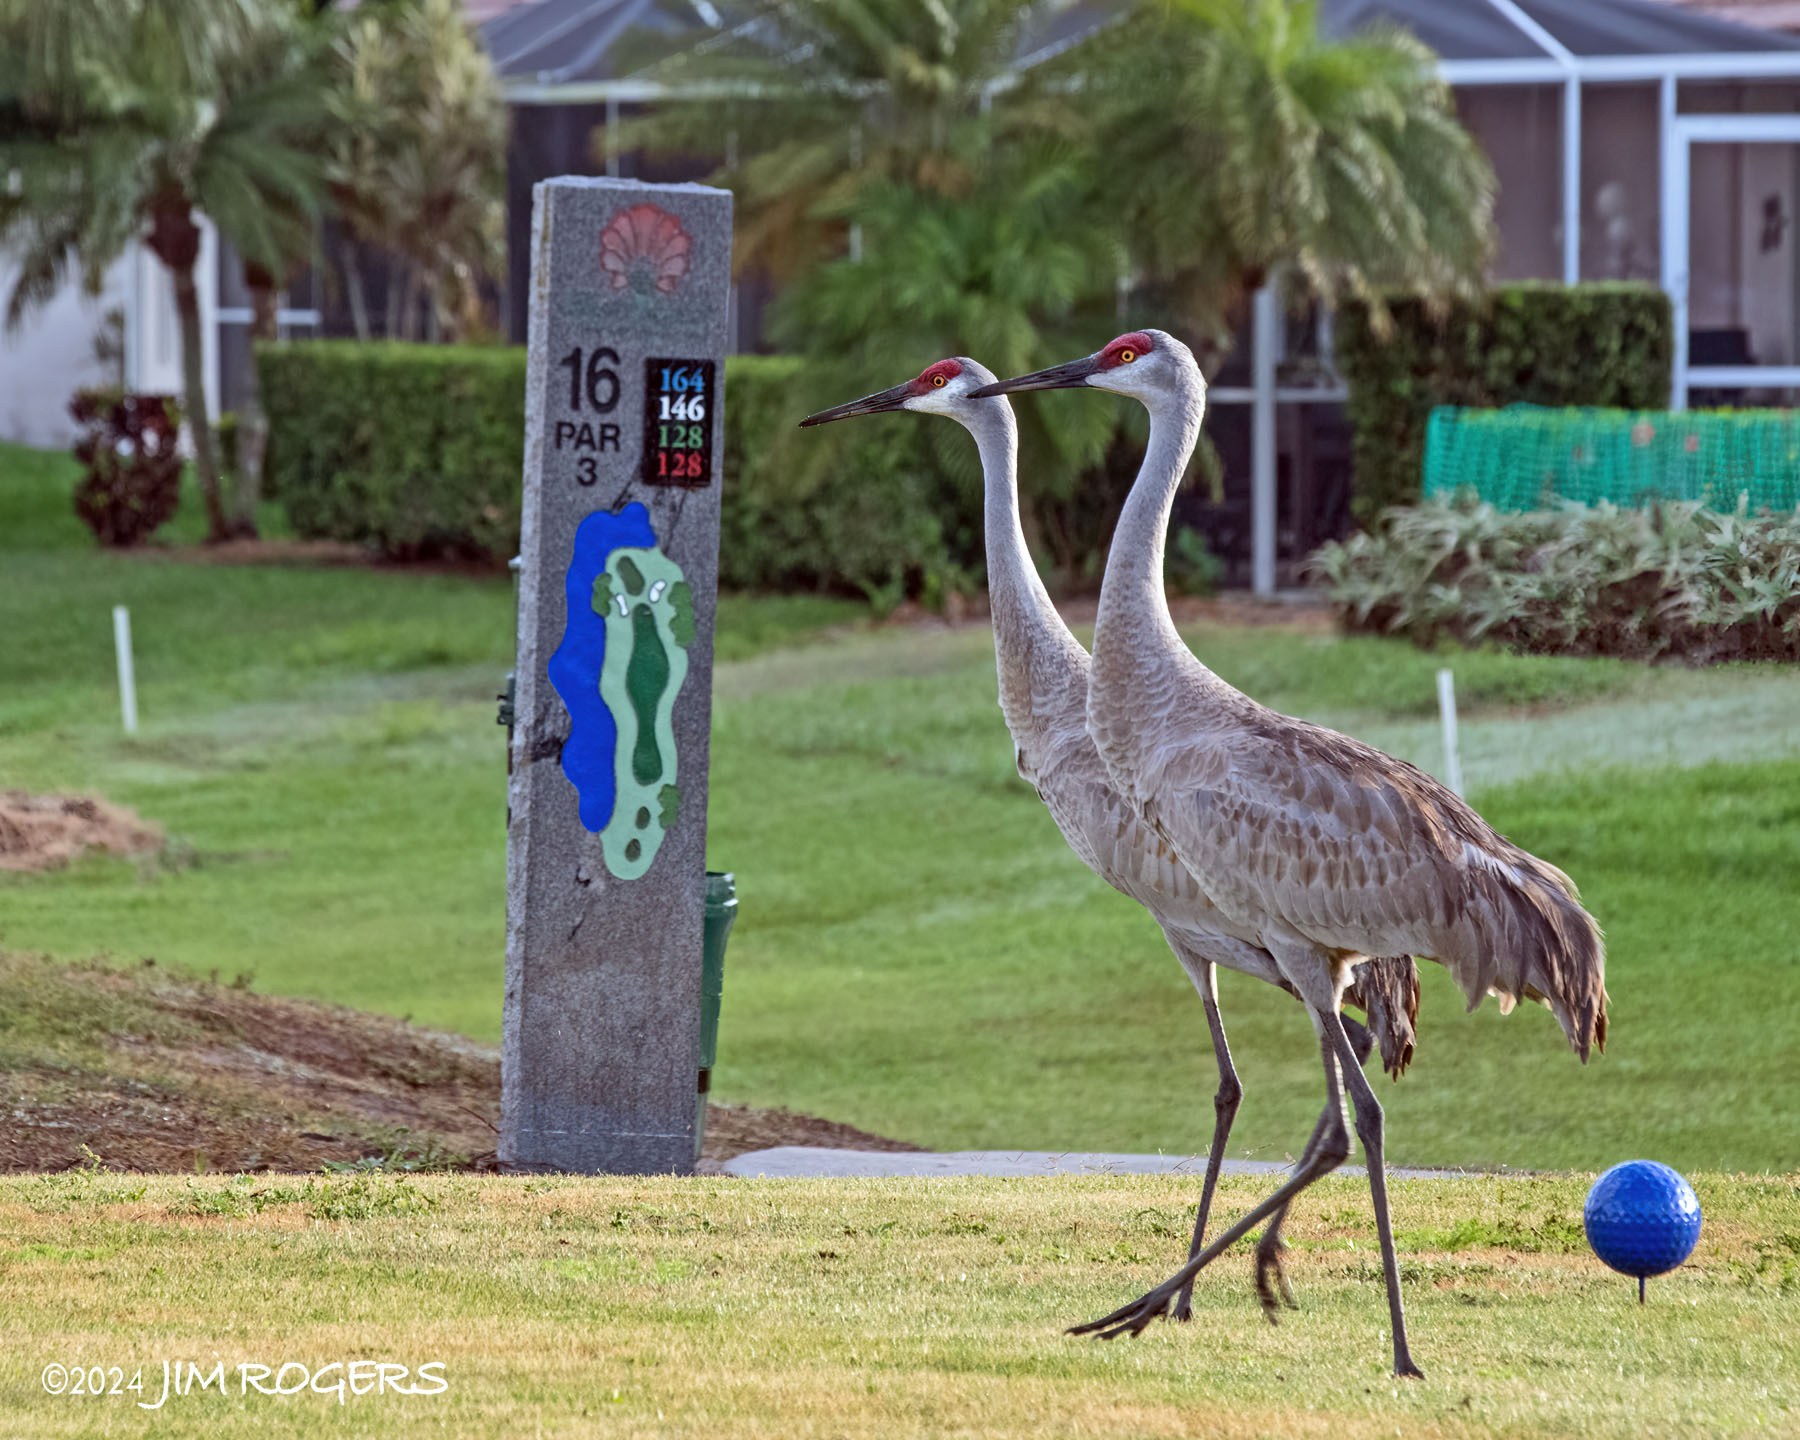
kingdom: Animalia
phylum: Chordata
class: Aves
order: Gruiformes
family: Gruidae
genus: Grus
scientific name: Grus canadensis
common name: Sandhill crane
